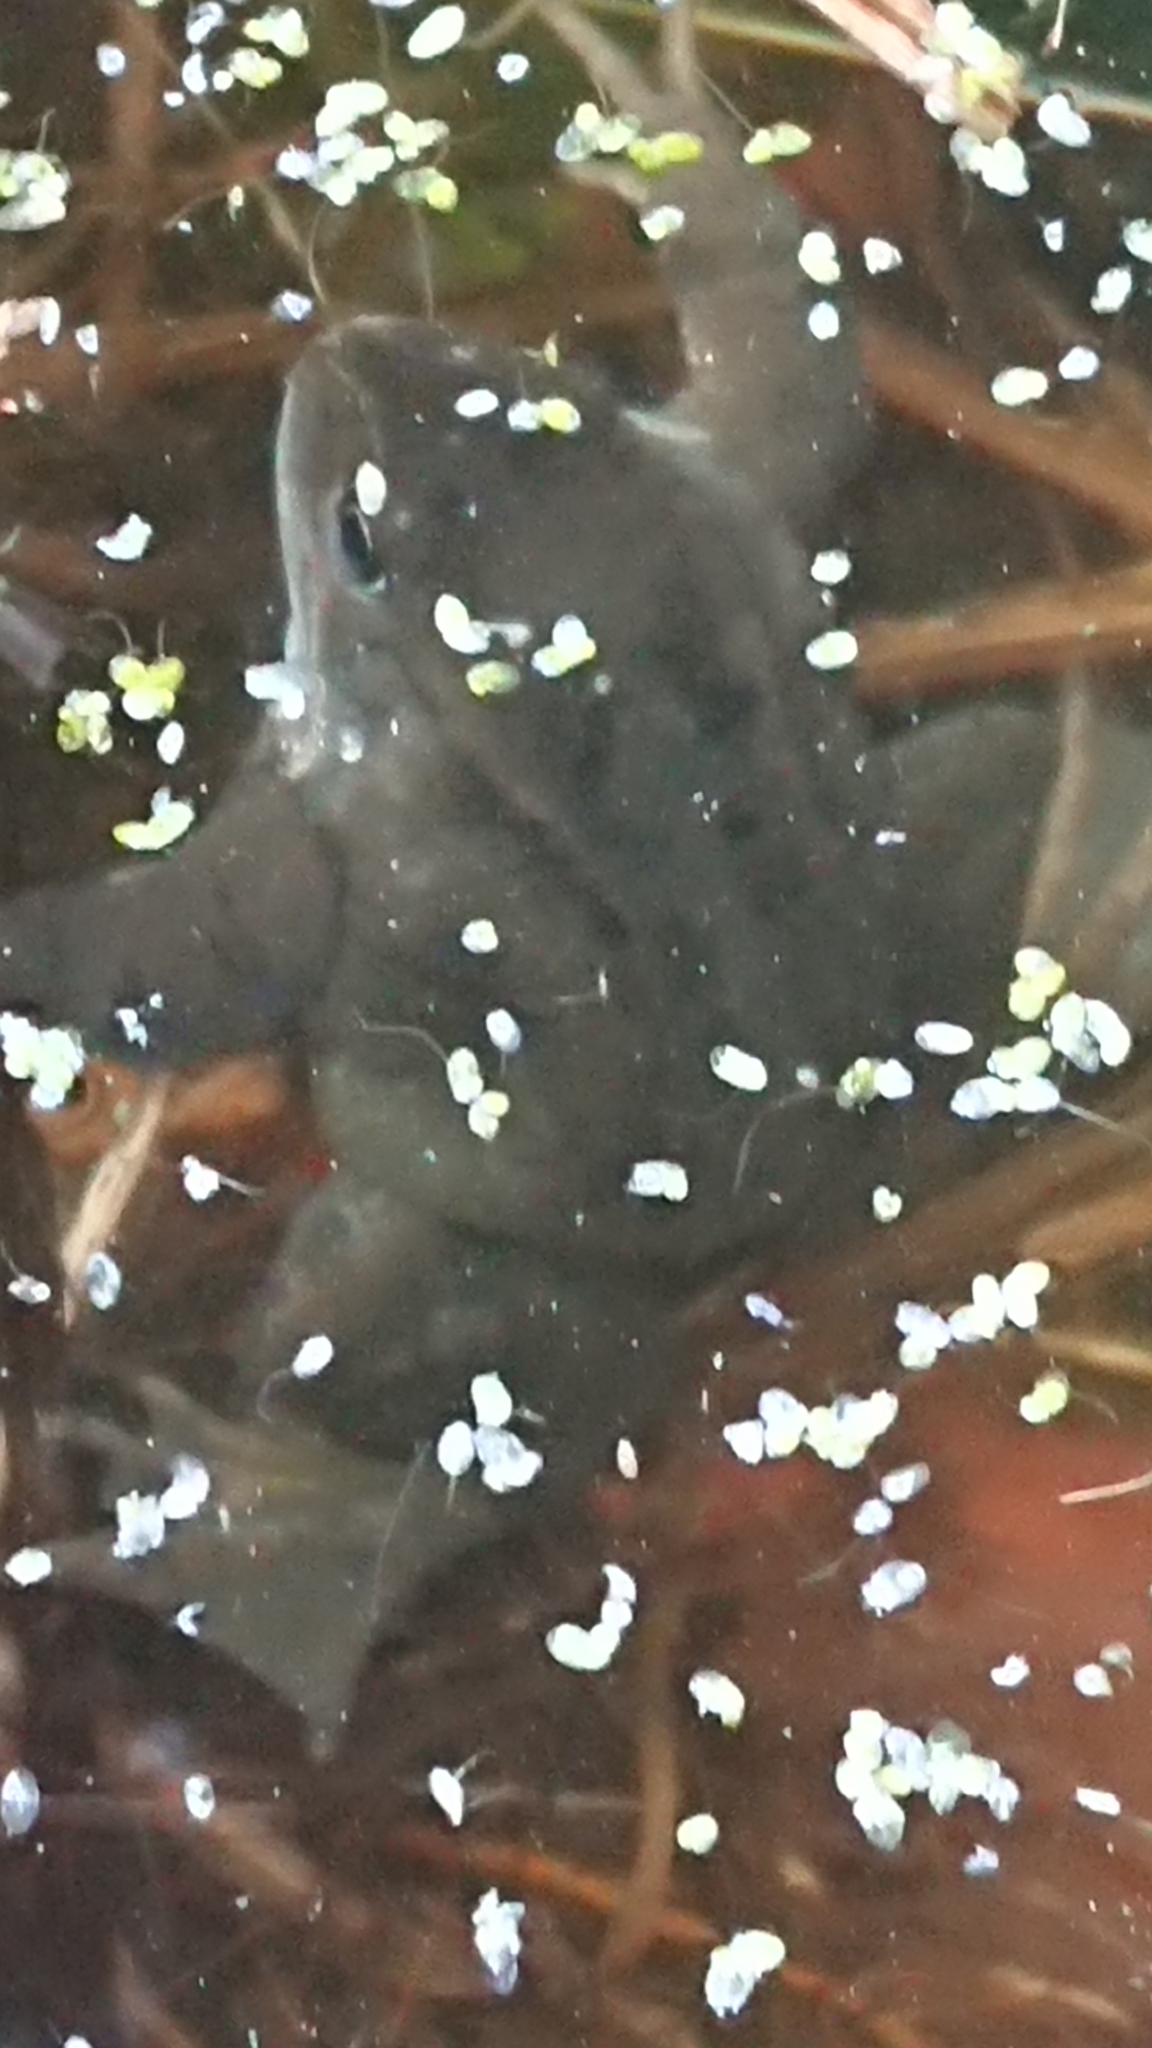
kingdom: Animalia
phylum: Chordata
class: Amphibia
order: Anura
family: Ranidae
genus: Rana
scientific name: Rana temporaria
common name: Common frog
